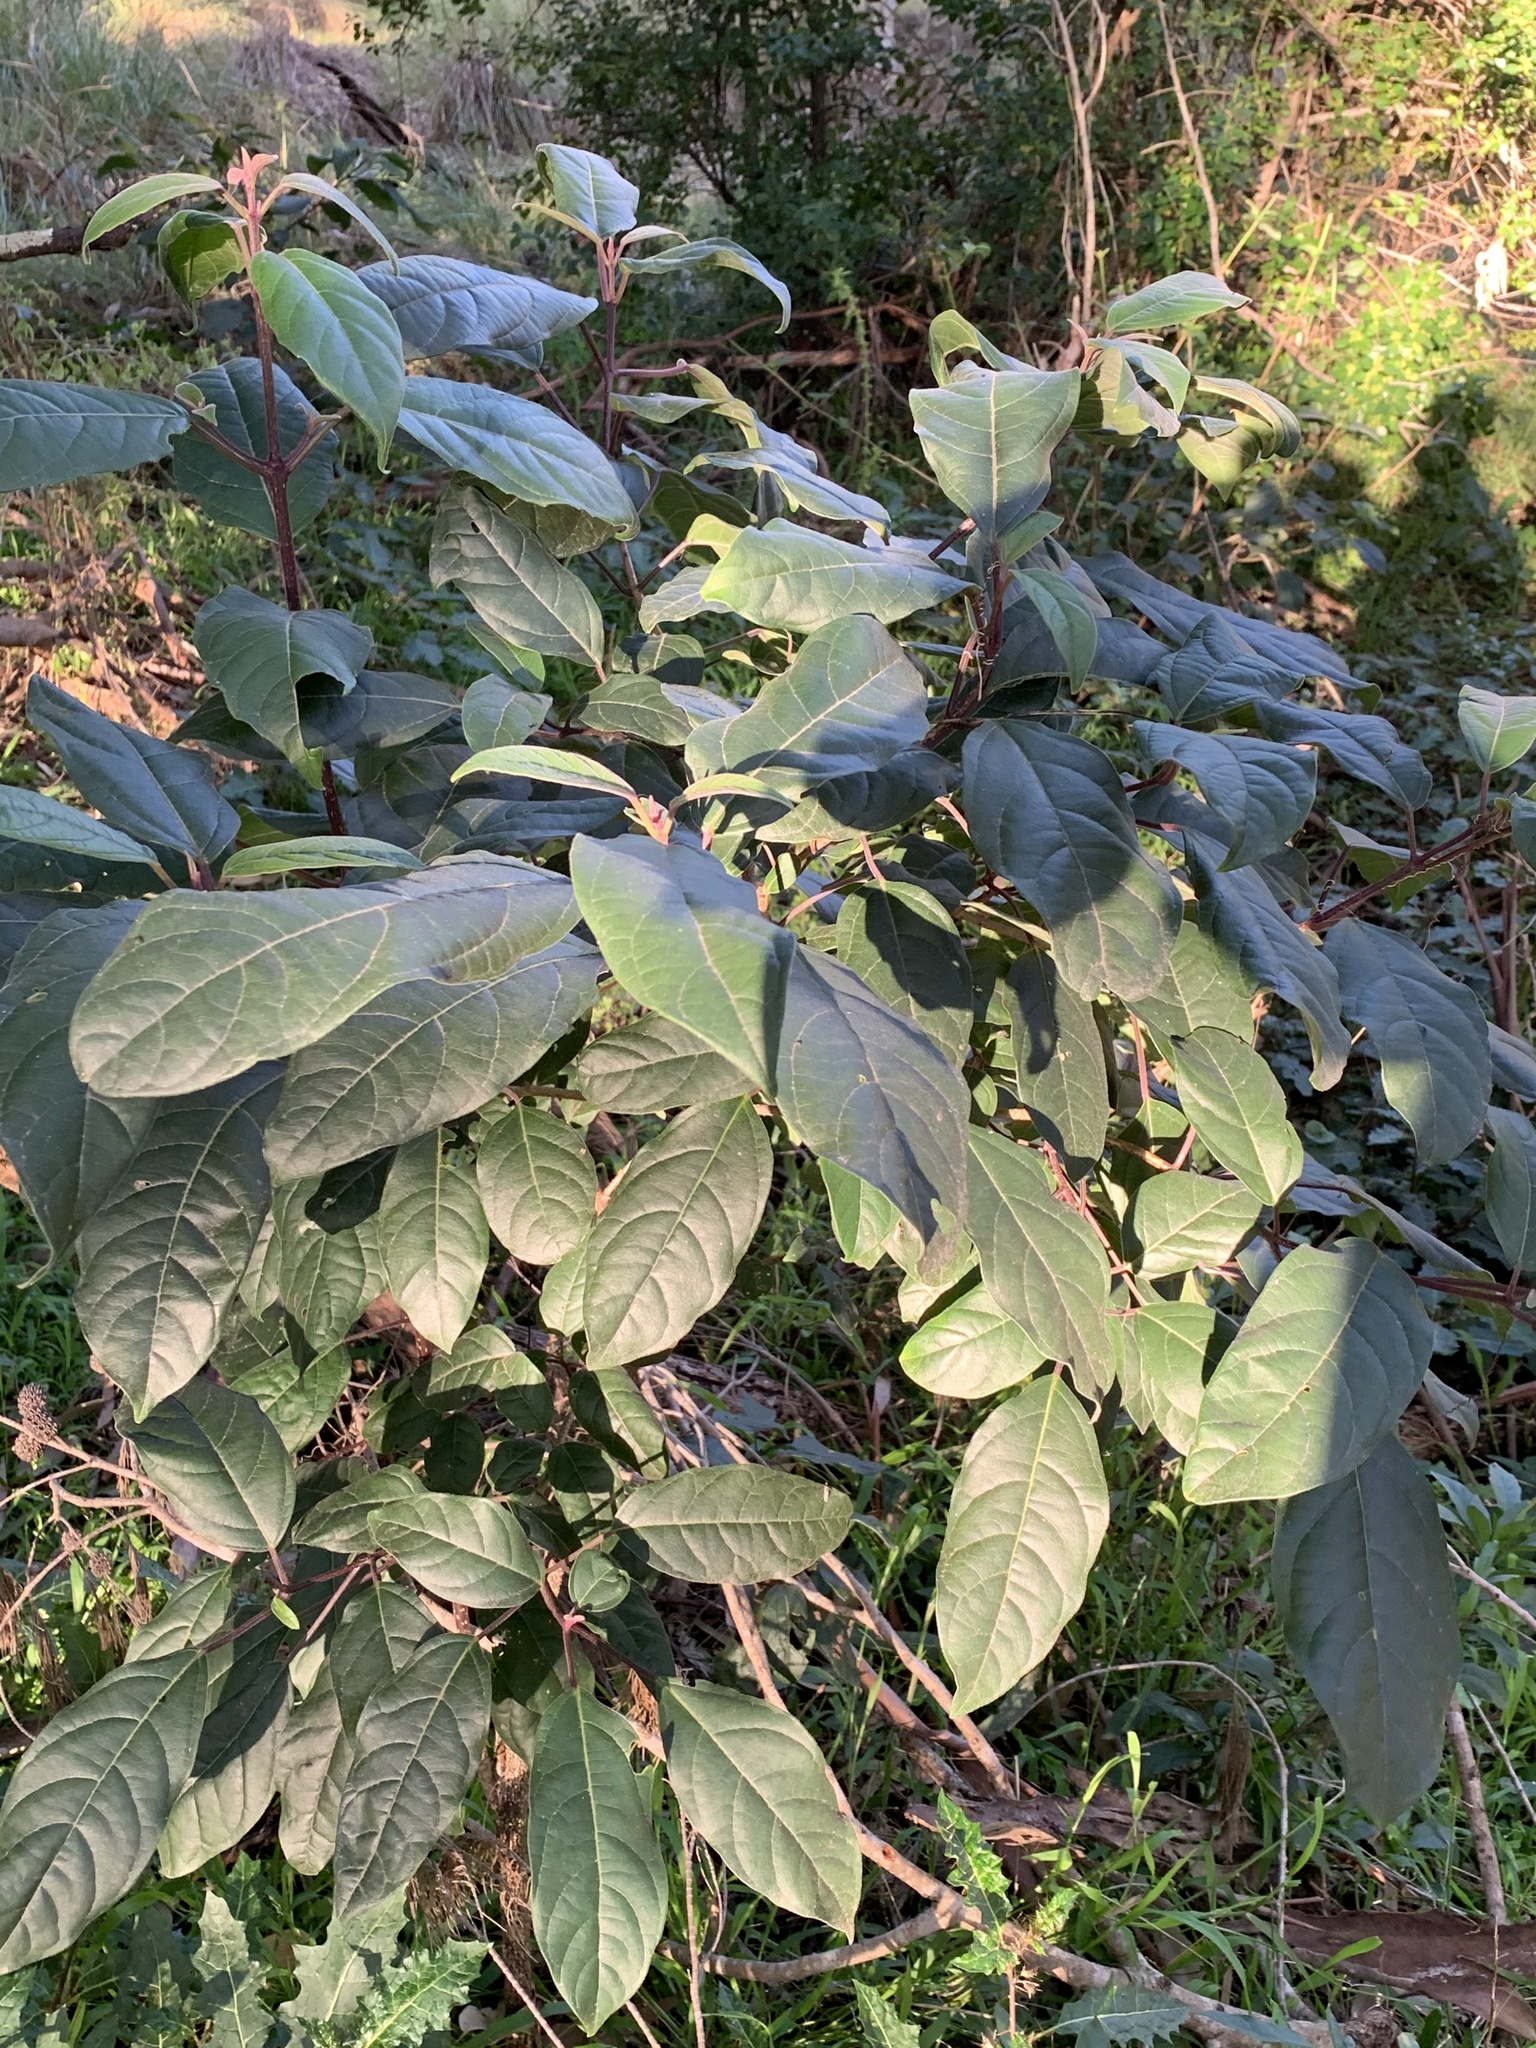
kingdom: Plantae
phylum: Tracheophyta
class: Magnoliopsida
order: Lamiales
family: Lamiaceae
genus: Clerodendrum
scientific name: Clerodendrum tomentosum
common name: Hairy clerodendrum
